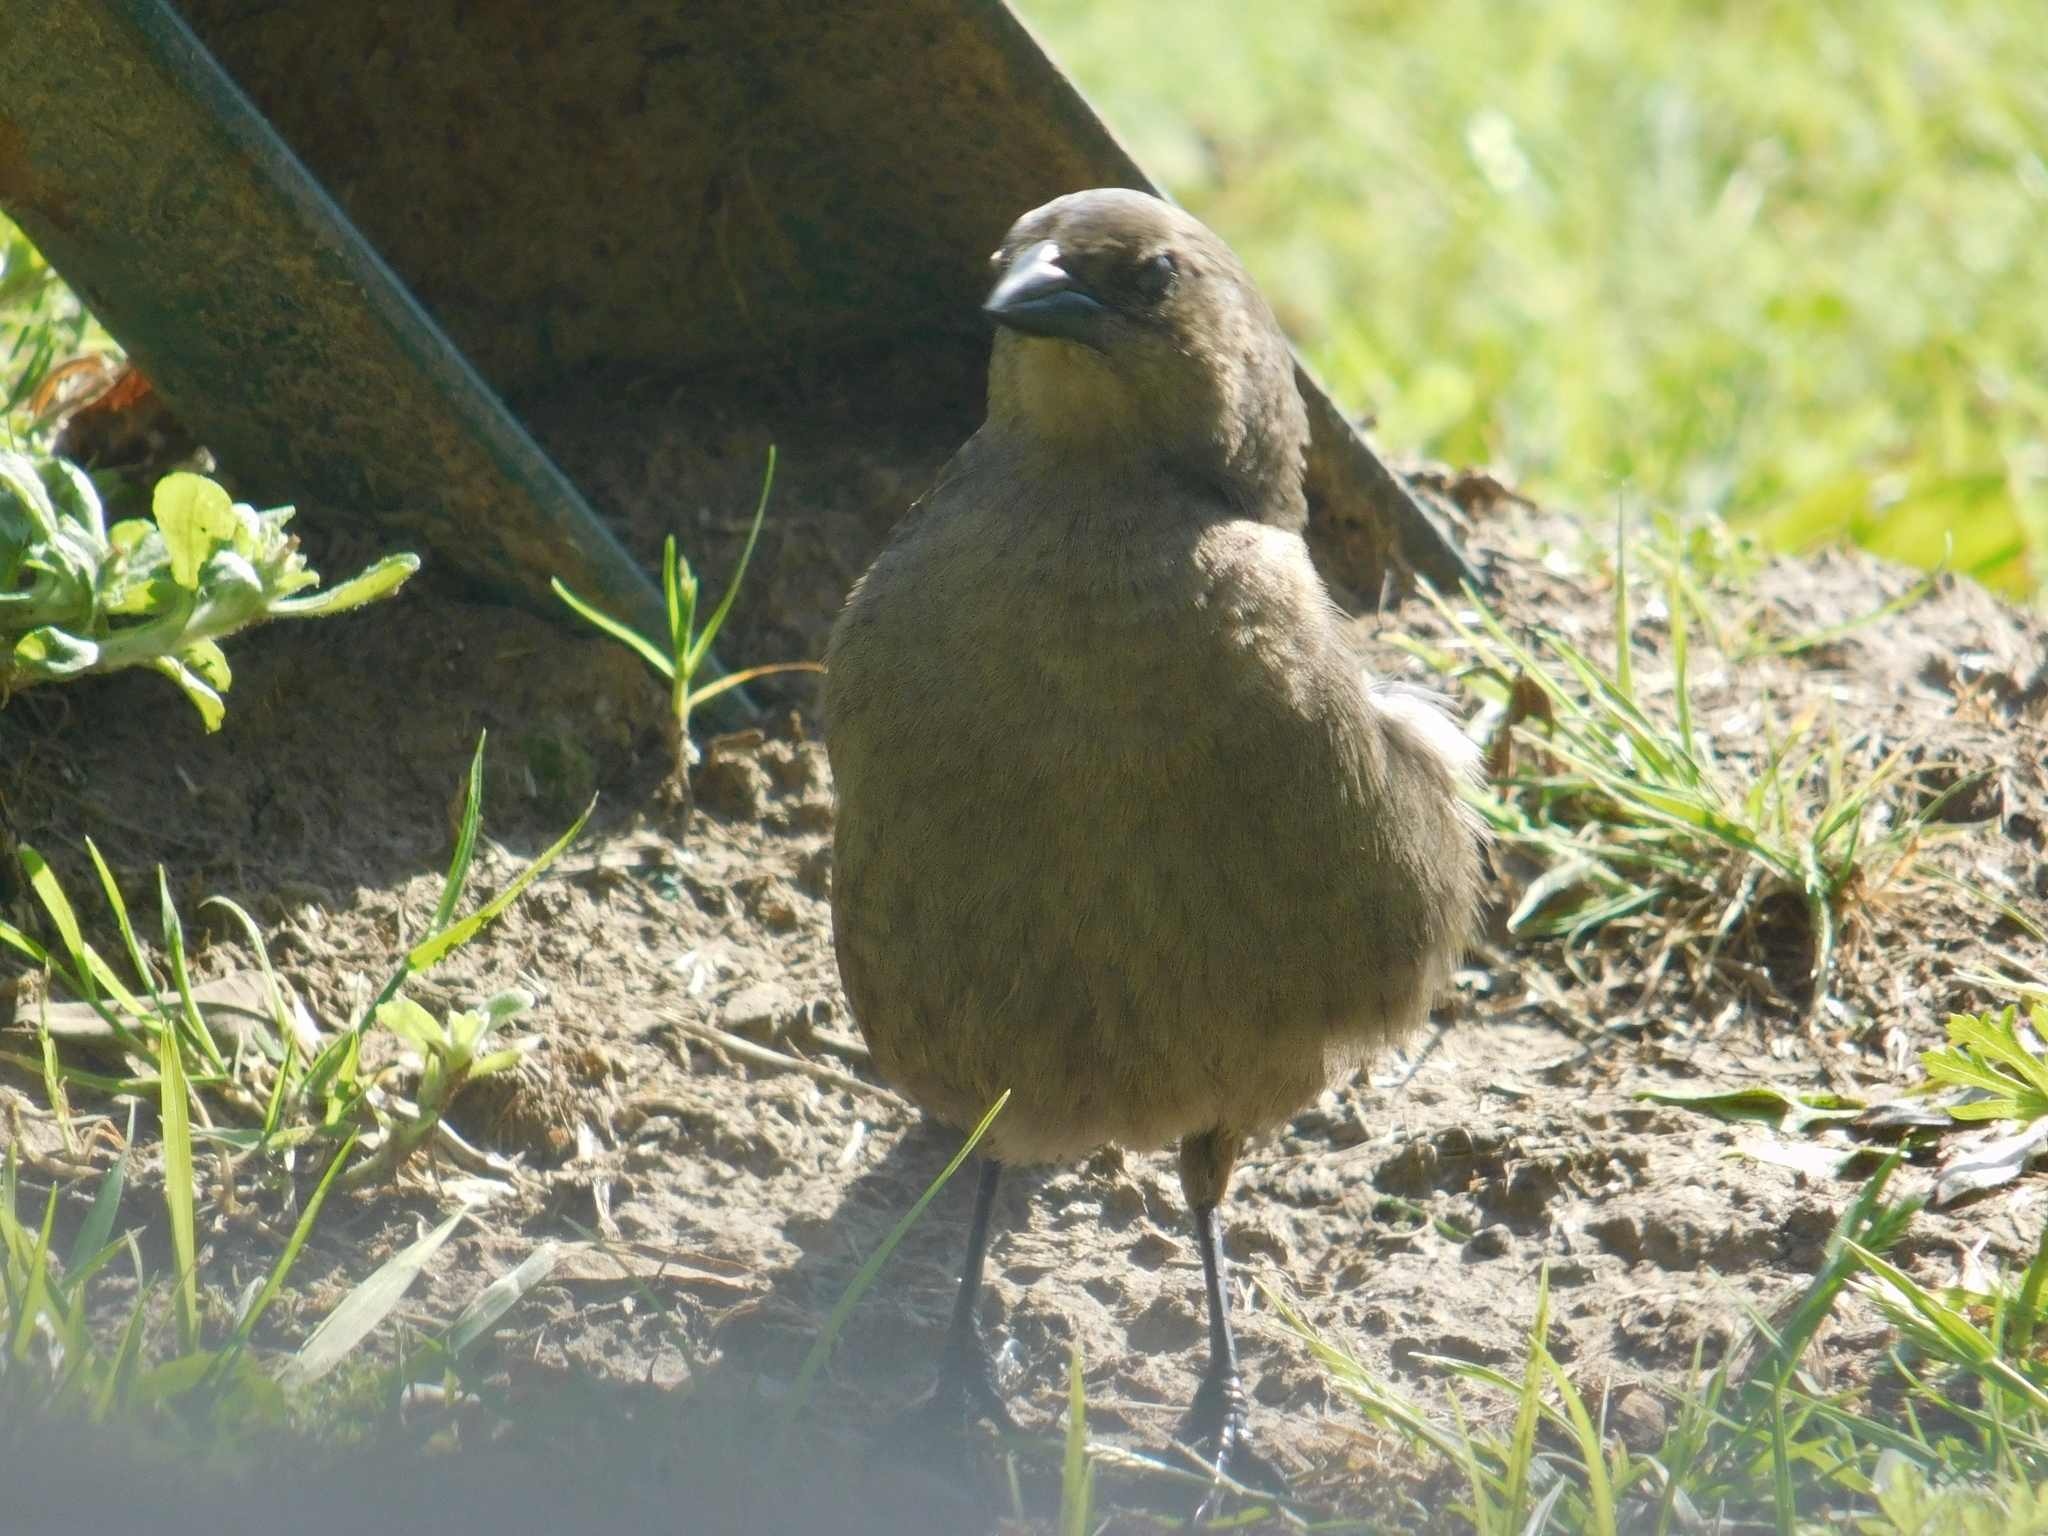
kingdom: Animalia
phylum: Chordata
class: Aves
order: Passeriformes
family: Icteridae
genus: Molothrus
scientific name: Molothrus bonariensis
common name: Shiny cowbird
